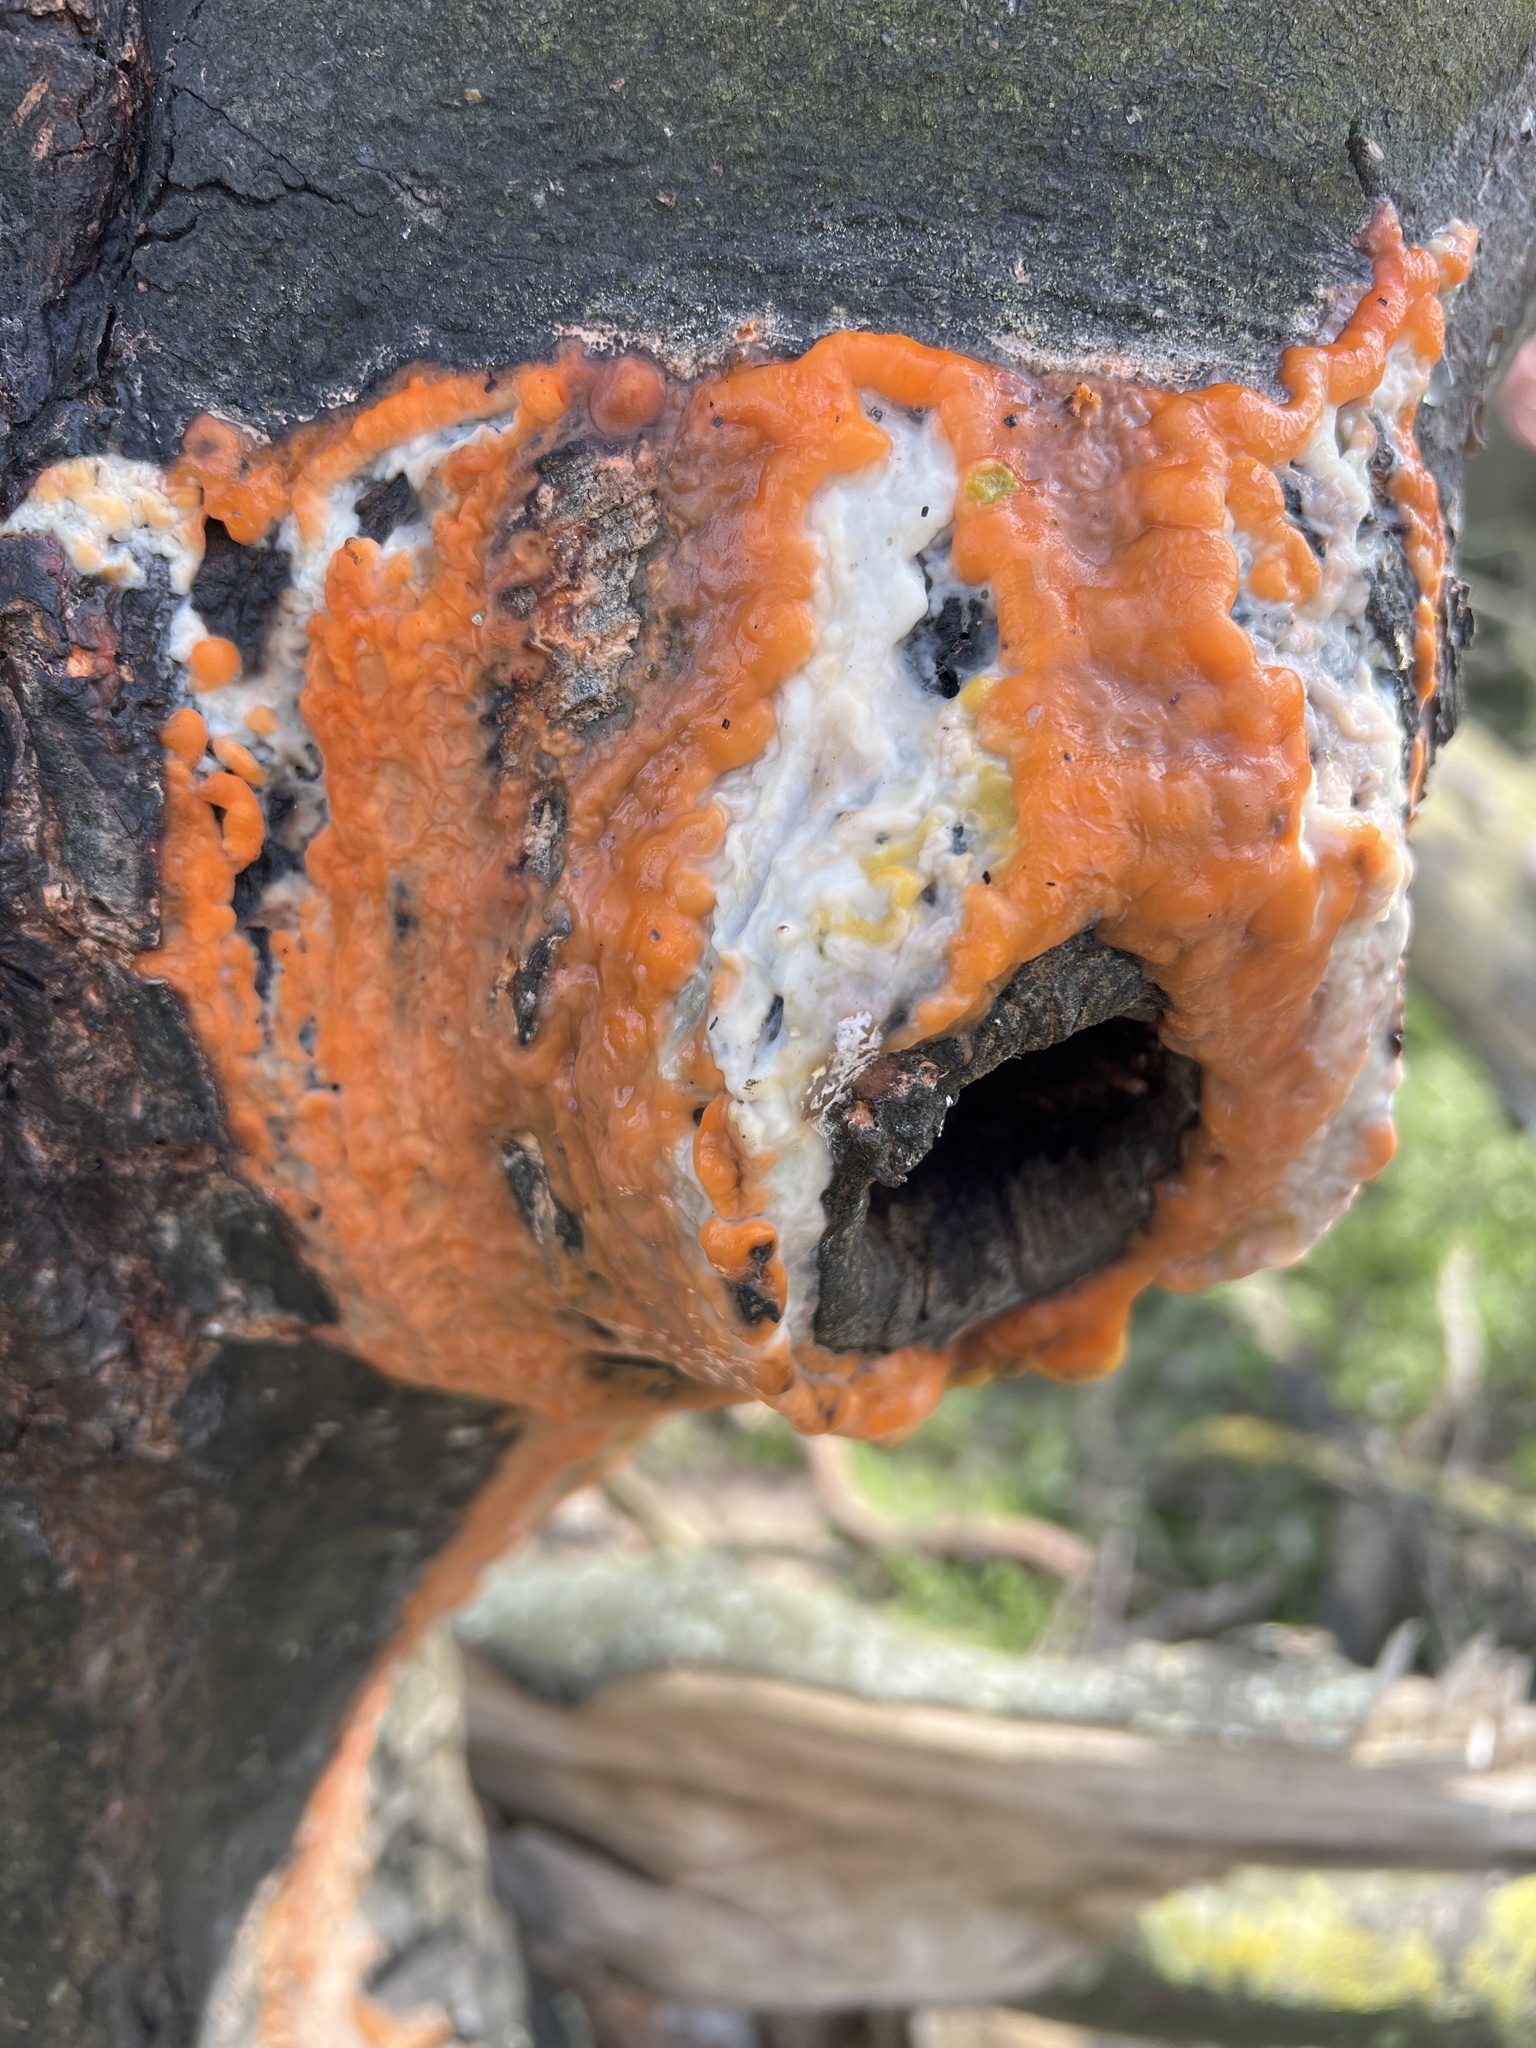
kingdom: Fungi
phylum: Ascomycota
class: Sordariomycetes
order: Hypocreales
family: Nectriaceae
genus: Fusicolla
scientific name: Fusicolla merismoides
